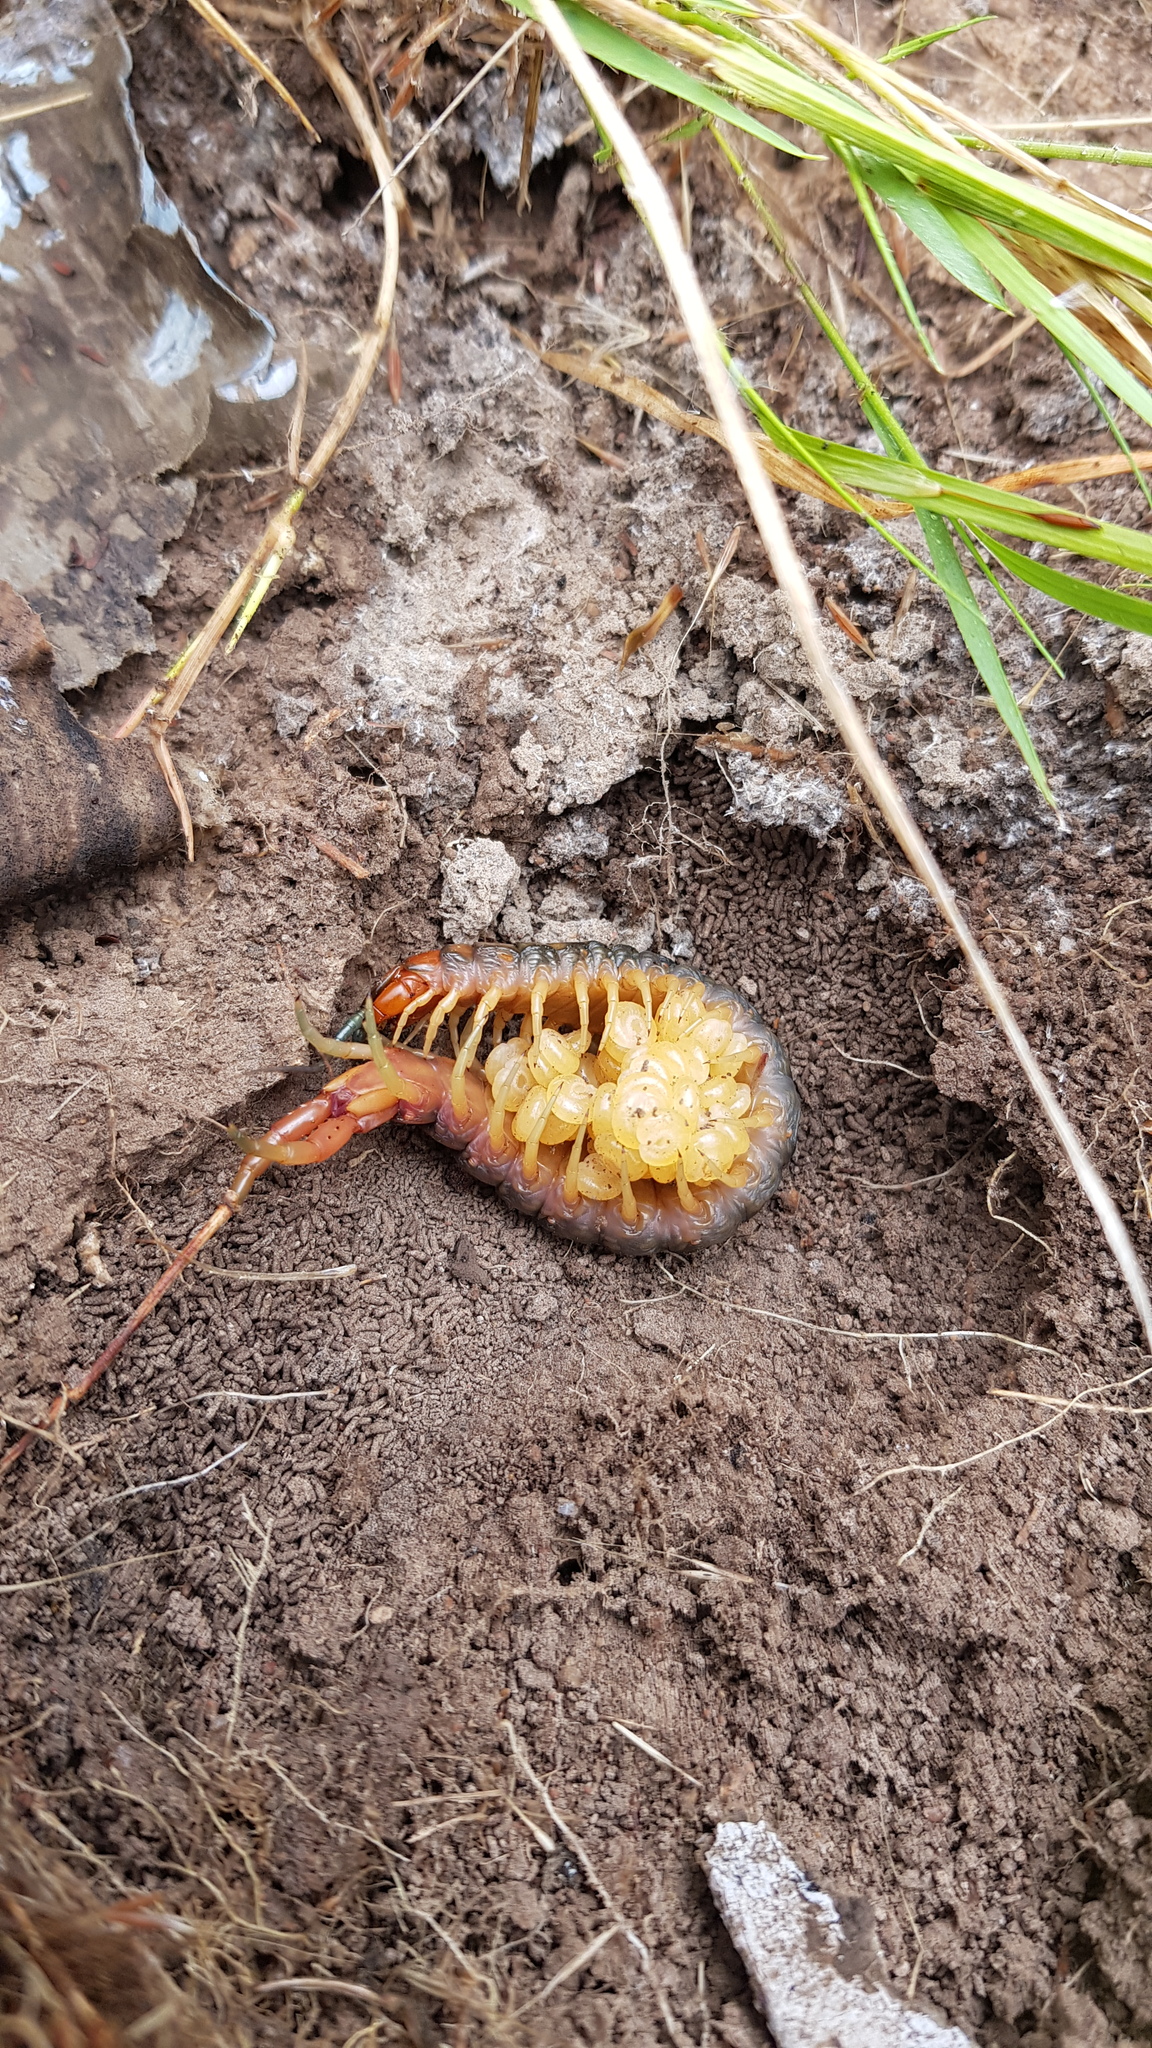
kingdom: Animalia
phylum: Arthropoda
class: Chilopoda
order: Scolopendromorpha
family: Scolopendridae
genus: Cormocephalus
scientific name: Cormocephalus aurantiipes
